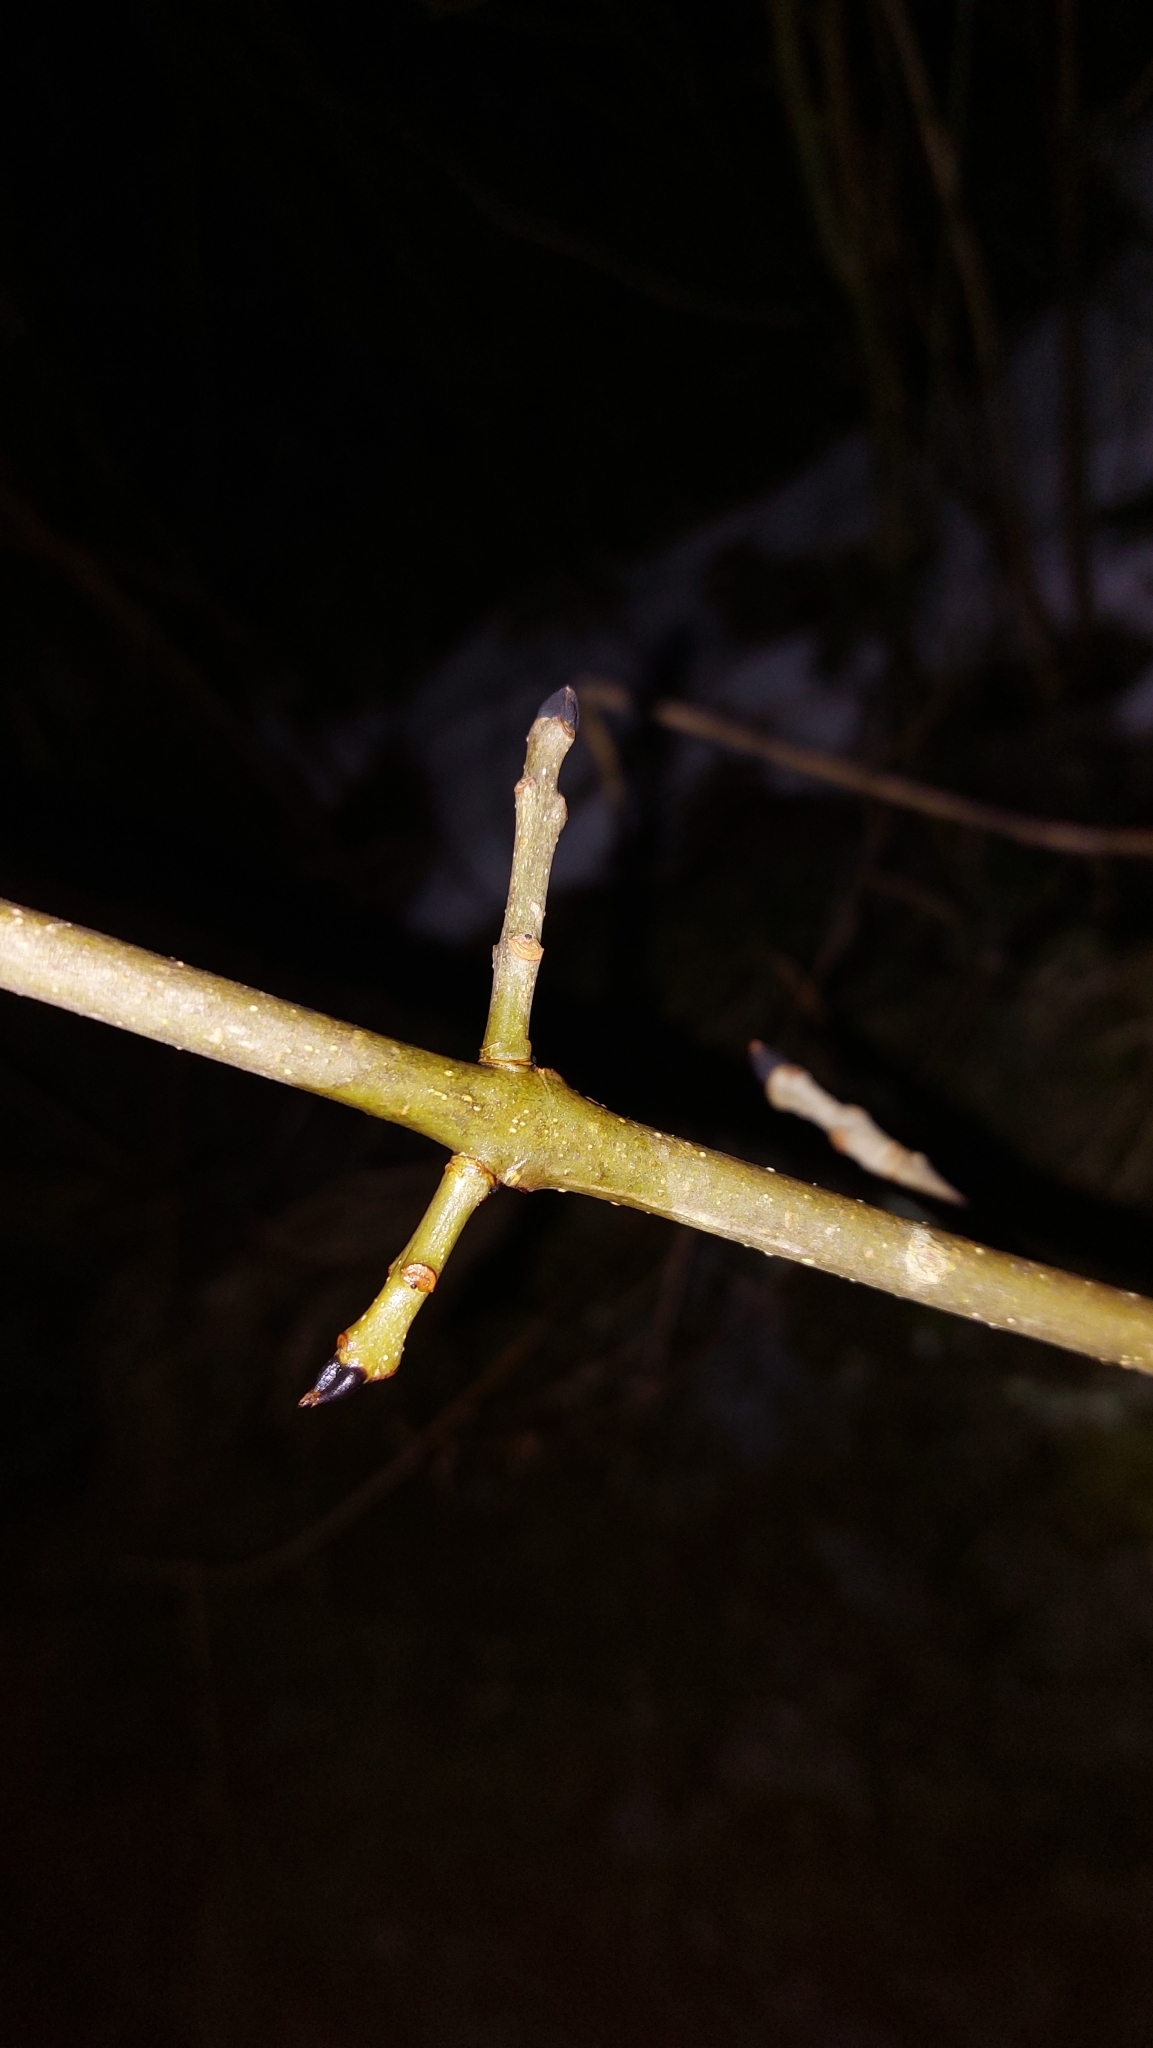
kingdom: Plantae
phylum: Tracheophyta
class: Magnoliopsida
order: Lamiales
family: Oleaceae
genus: Fraxinus
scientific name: Fraxinus excelsior
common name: European ash
